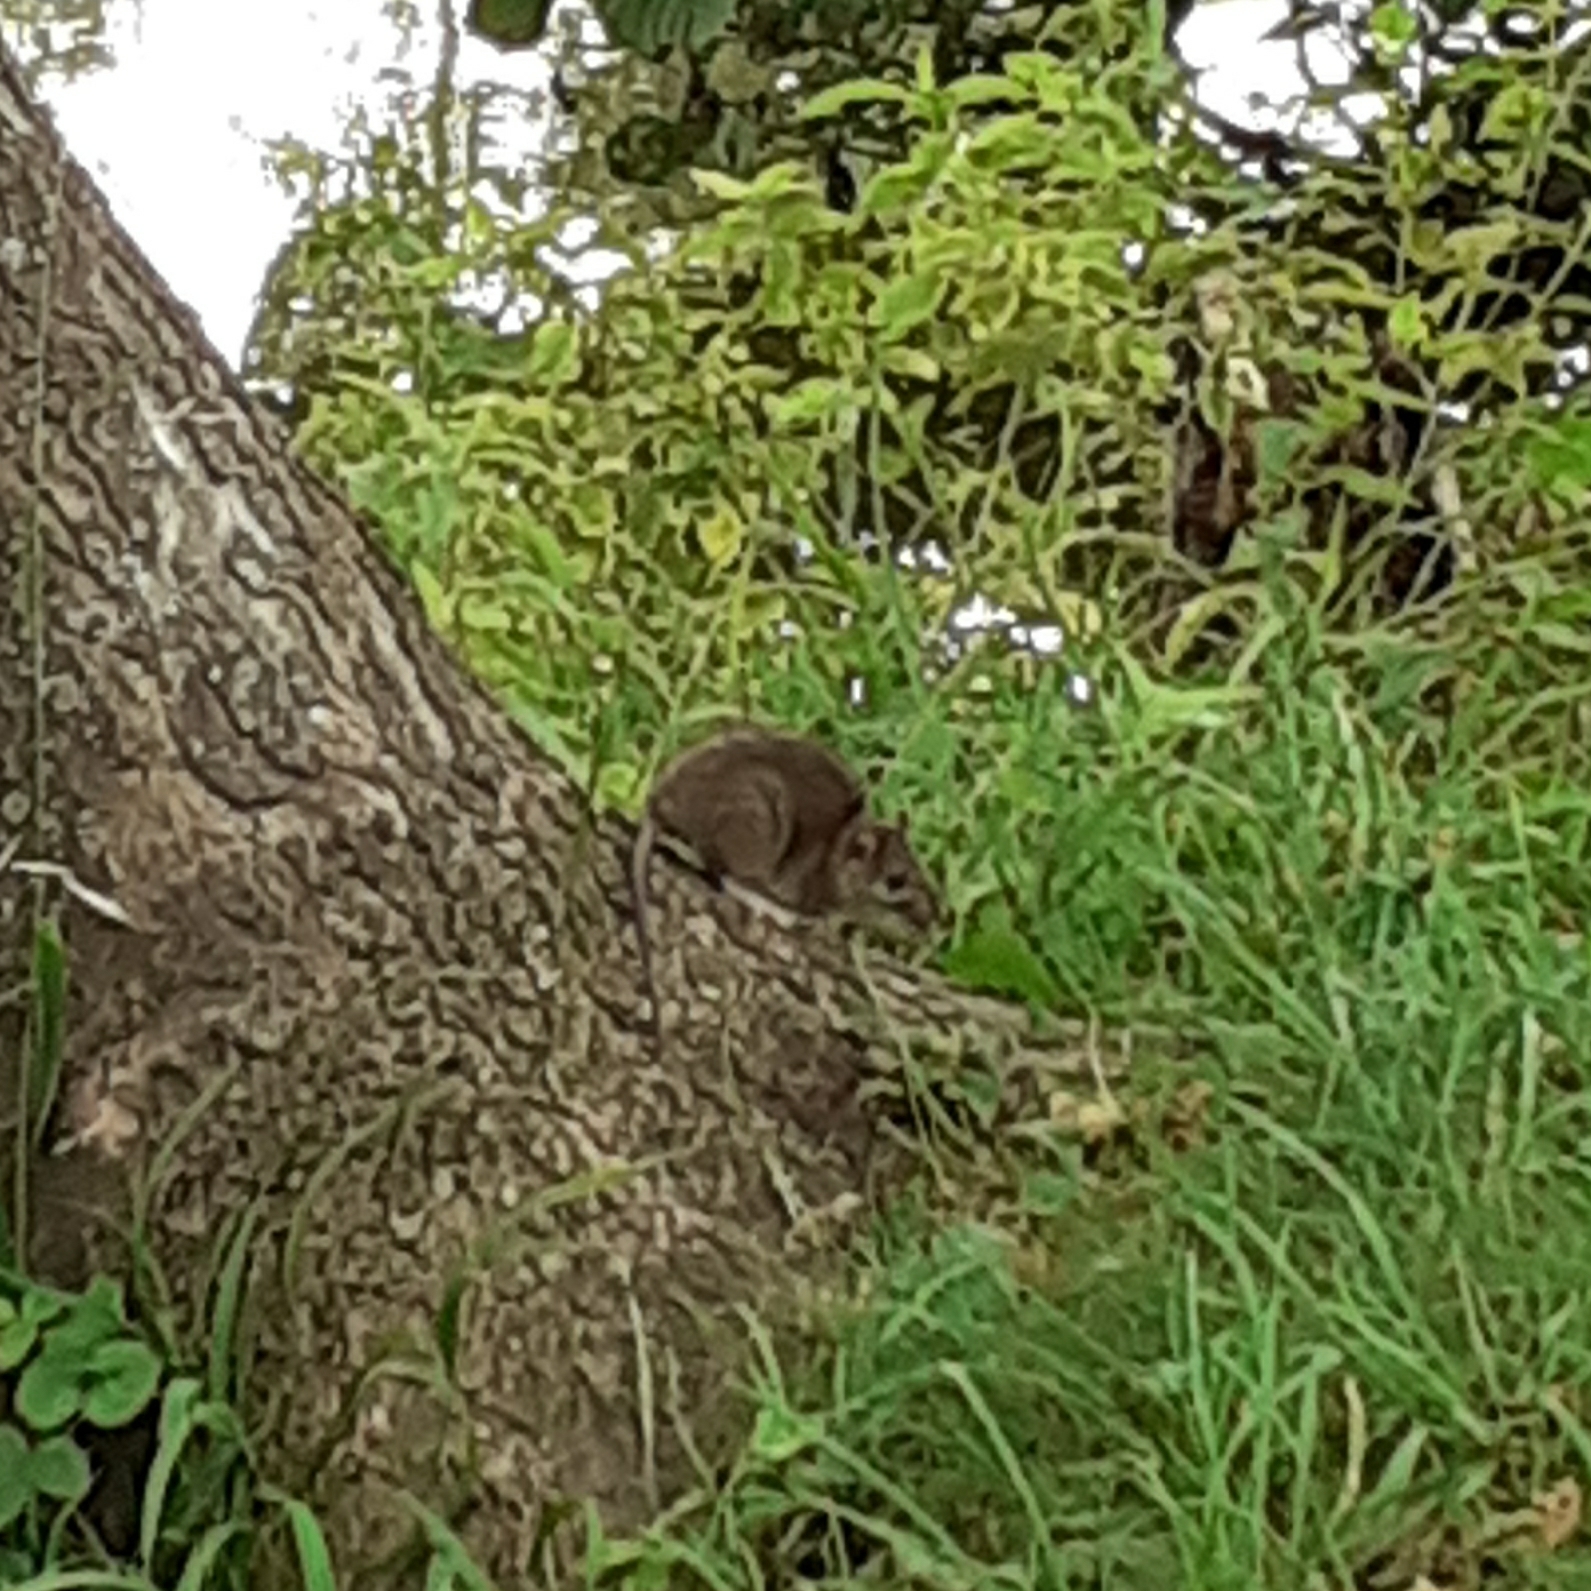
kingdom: Animalia
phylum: Chordata
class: Mammalia
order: Rodentia
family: Muridae
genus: Rattus
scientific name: Rattus norvegicus
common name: Brown rat
